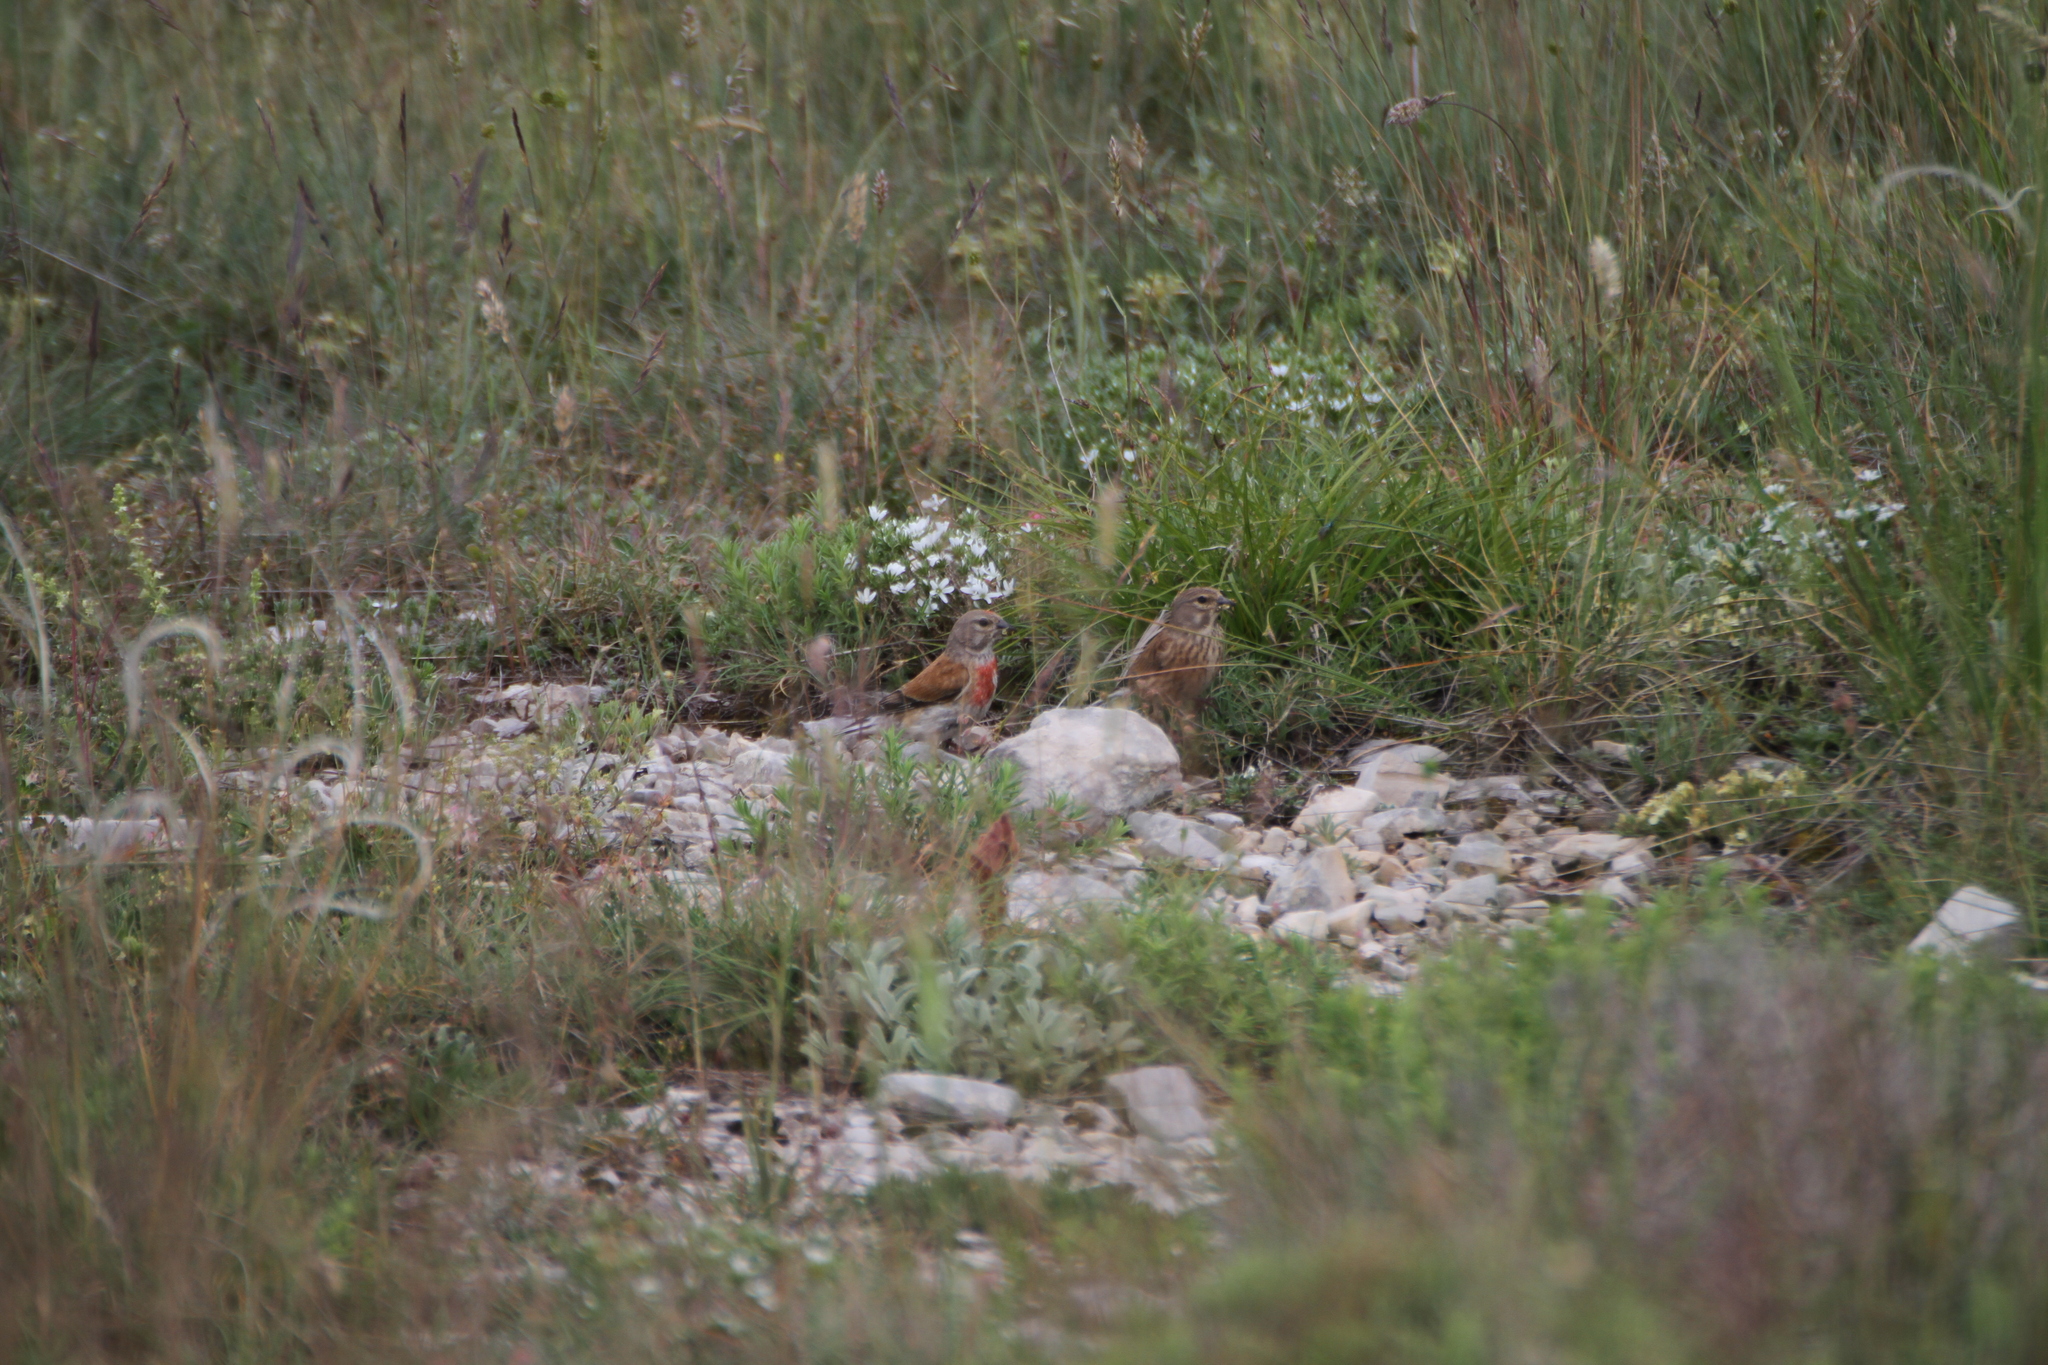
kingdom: Animalia
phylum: Chordata
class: Aves
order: Passeriformes
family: Fringillidae
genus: Linaria
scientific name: Linaria cannabina
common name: Common linnet
